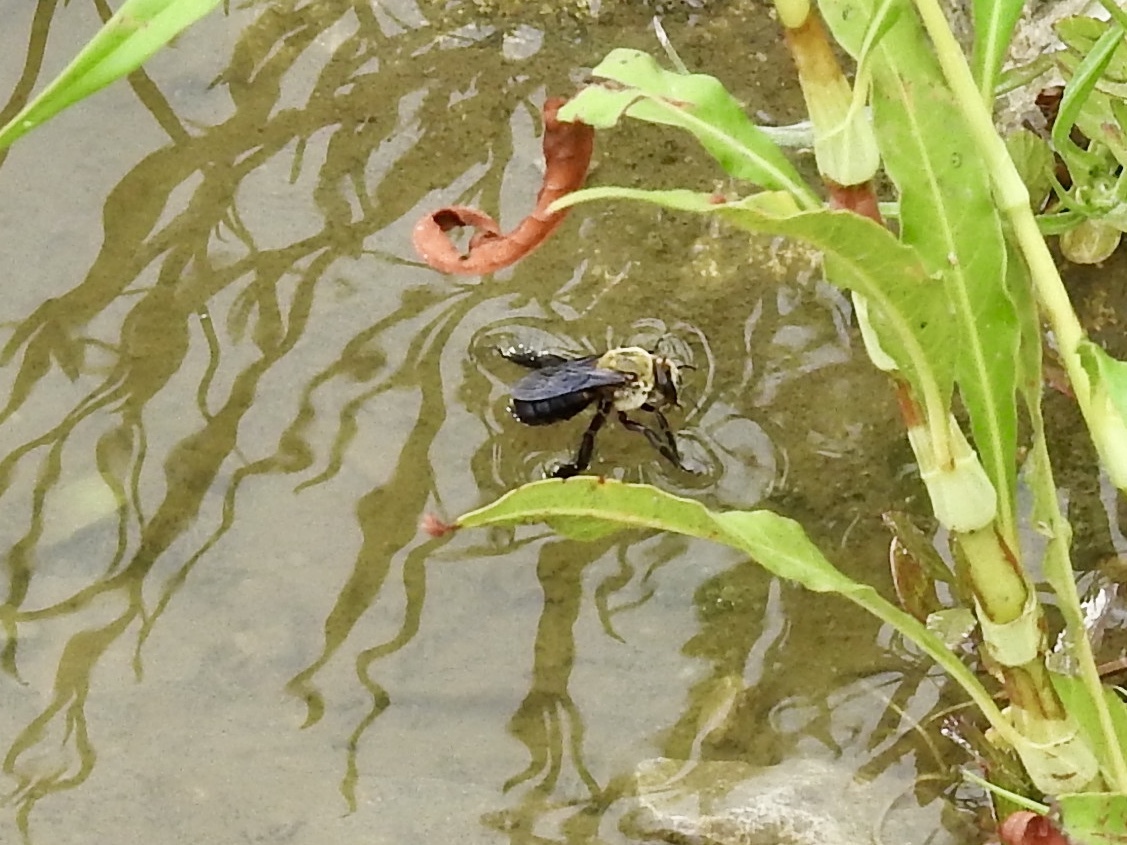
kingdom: Animalia
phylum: Arthropoda
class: Insecta
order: Hymenoptera
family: Apidae
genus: Ptilothrix
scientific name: Ptilothrix bombiformis
